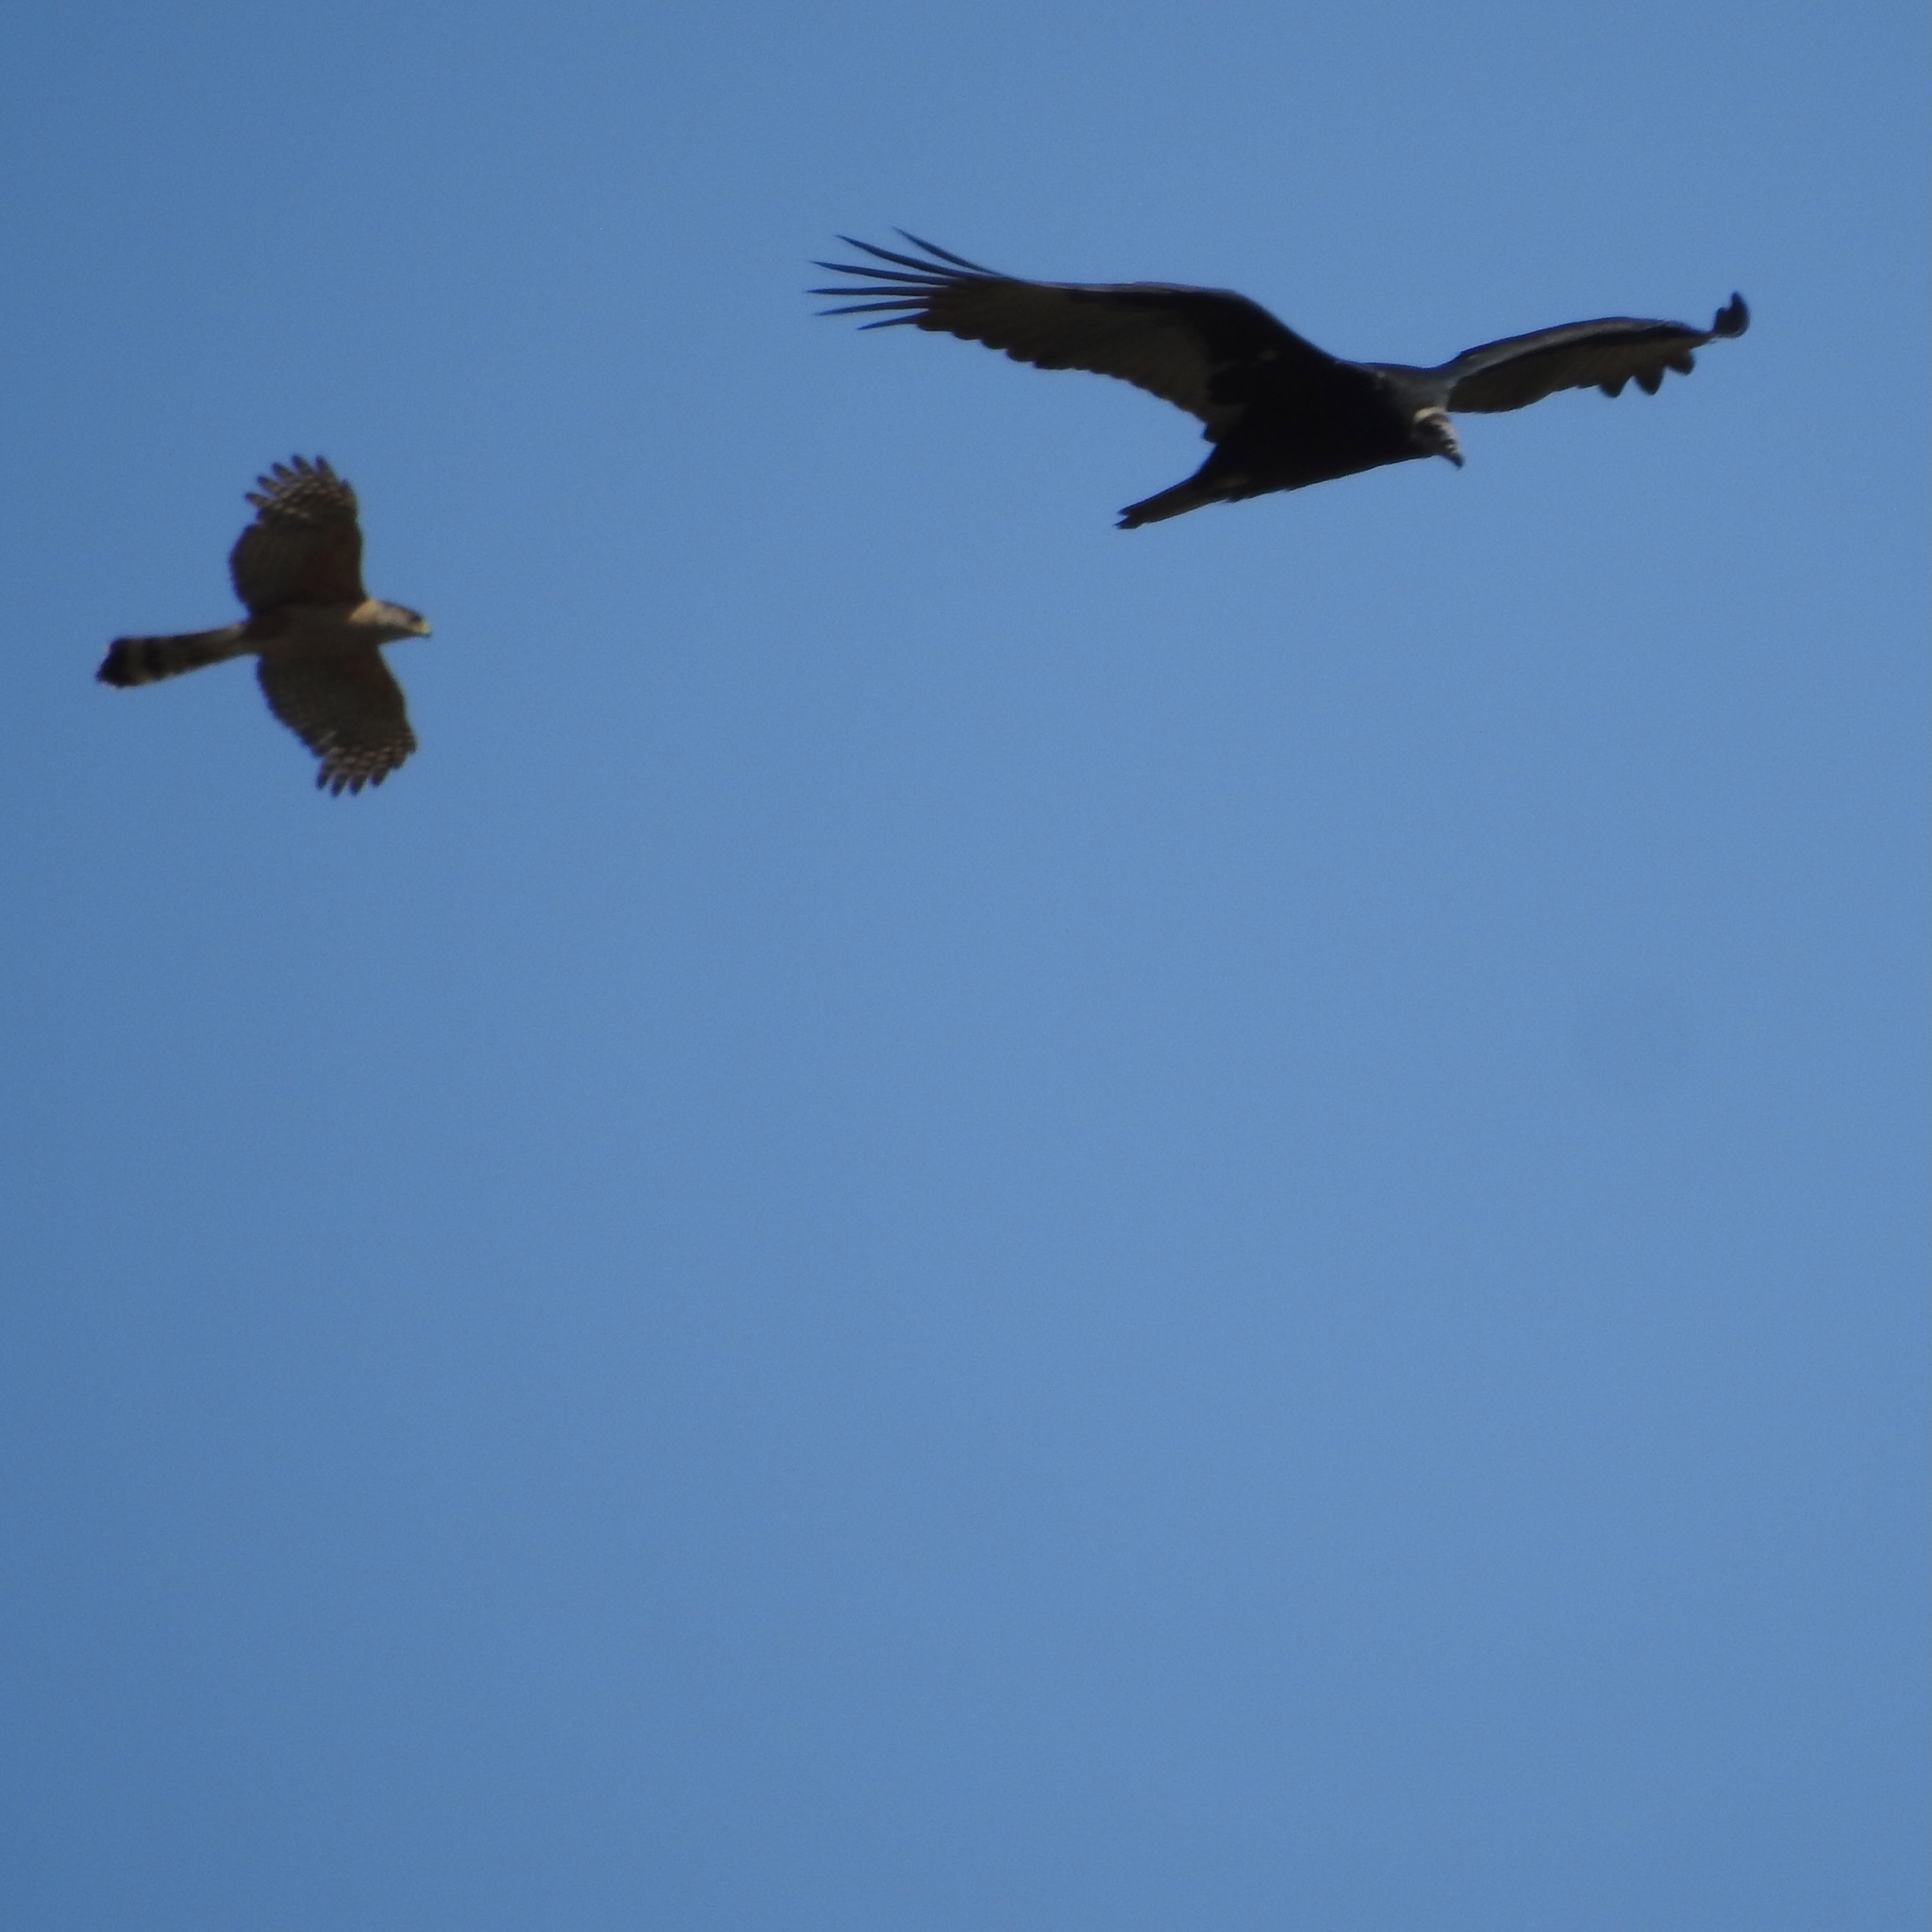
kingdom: Animalia
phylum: Chordata
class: Aves
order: Accipitriformes
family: Accipitridae
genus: Accipiter
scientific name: Accipiter cooperii
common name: Cooper's hawk
